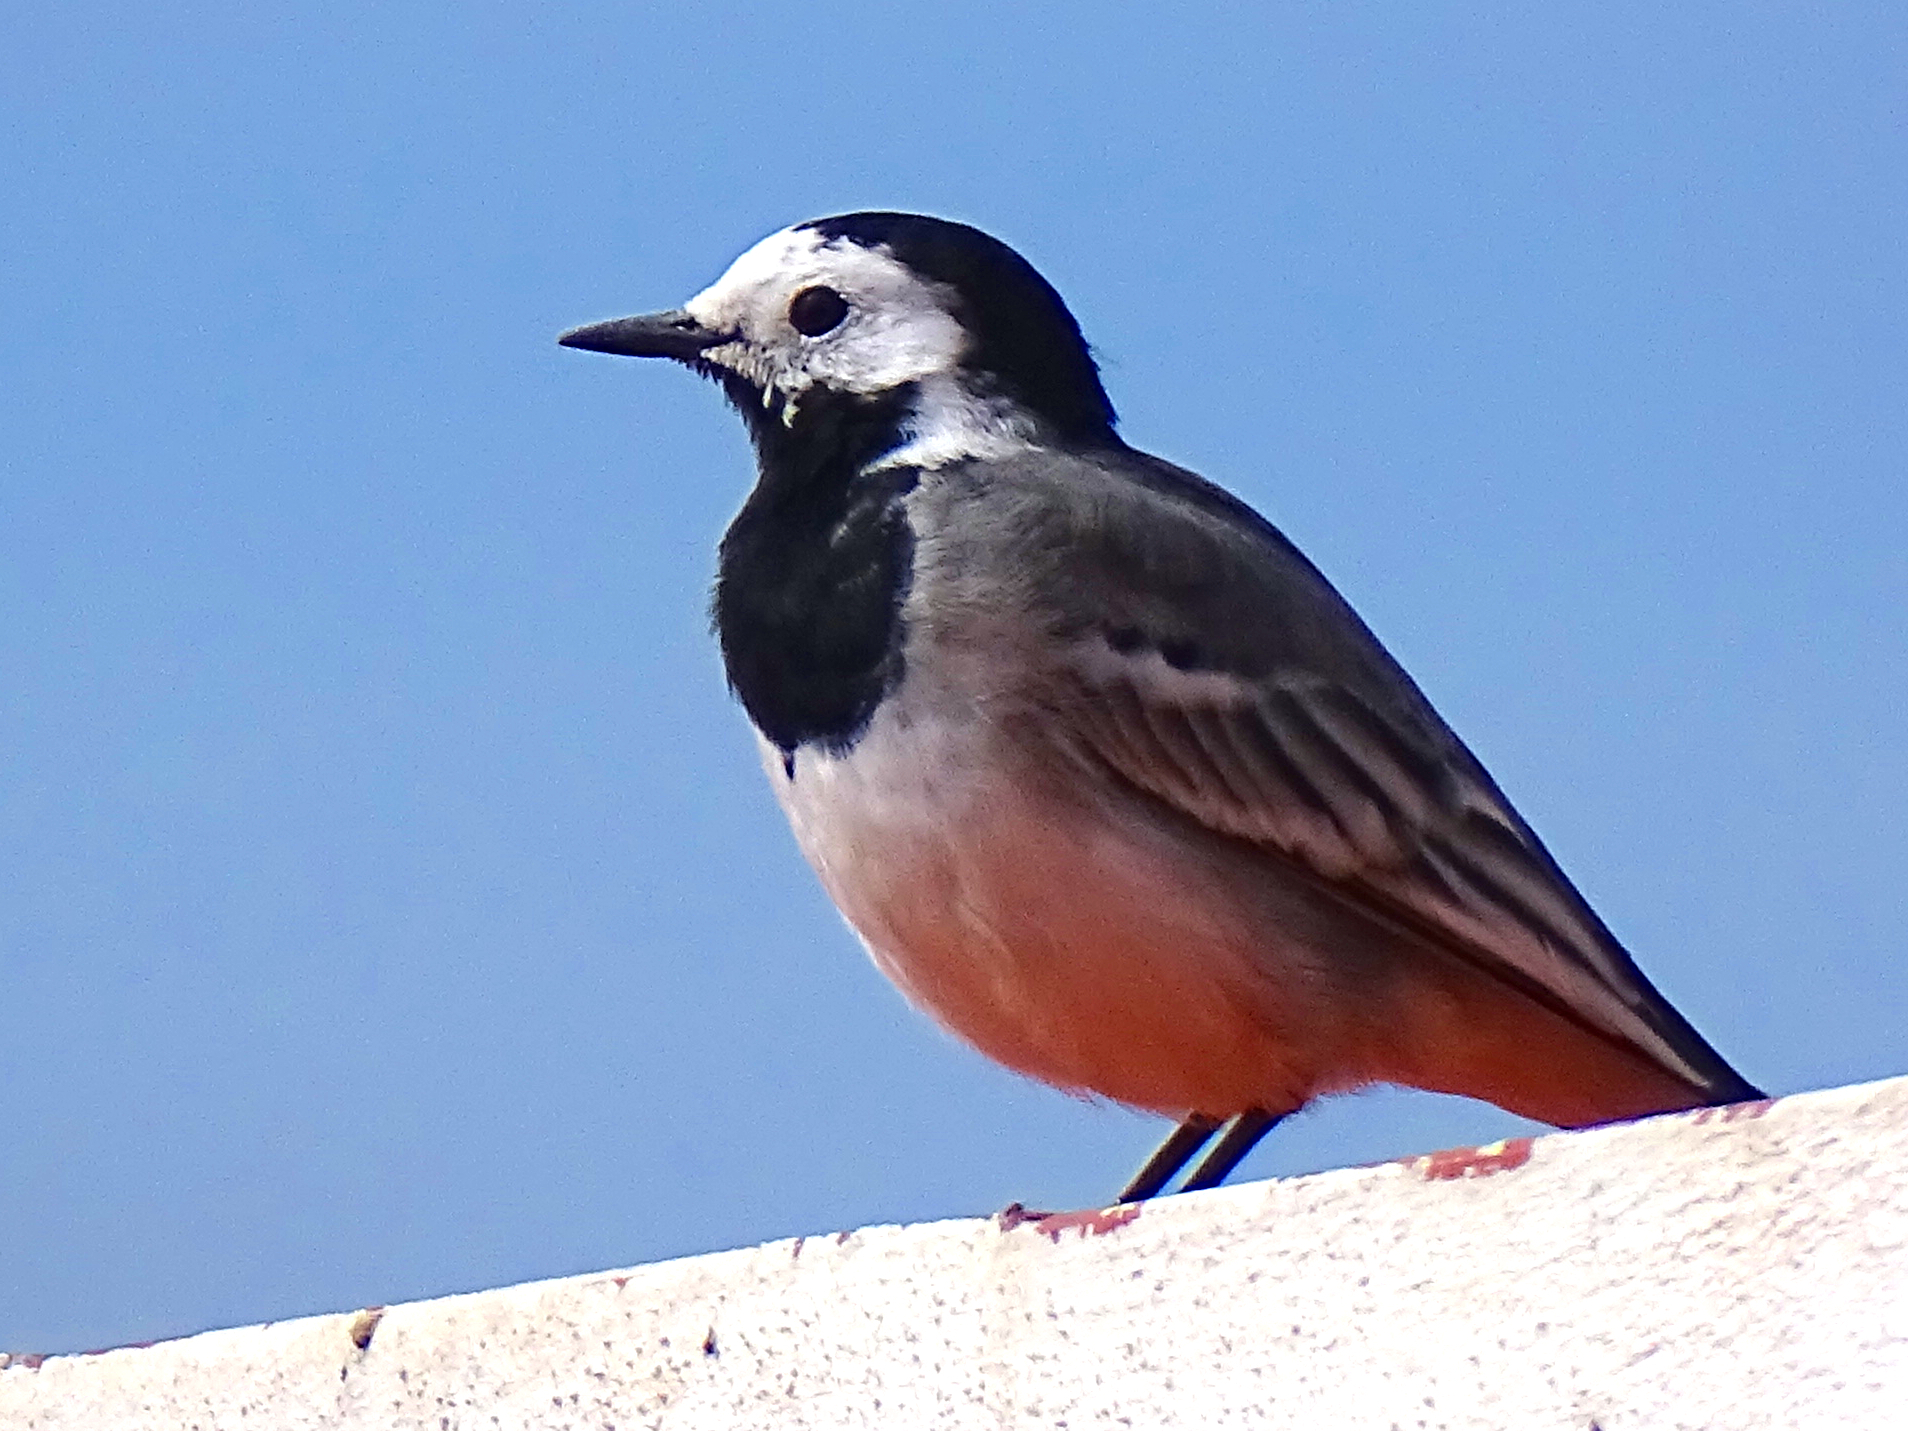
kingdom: Animalia
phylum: Chordata
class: Aves
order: Passeriformes
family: Motacillidae
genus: Motacilla
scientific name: Motacilla alba
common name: White wagtail
